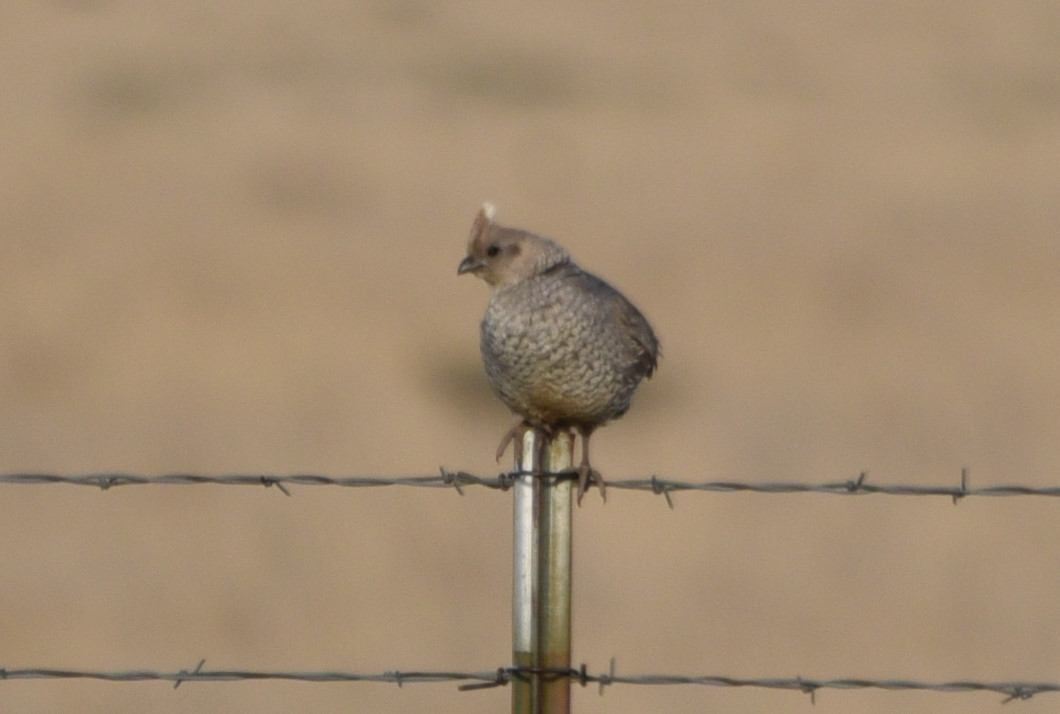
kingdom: Animalia
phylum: Chordata
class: Aves
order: Galliformes
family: Odontophoridae
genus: Callipepla
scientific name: Callipepla squamata
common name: Scaled quail
